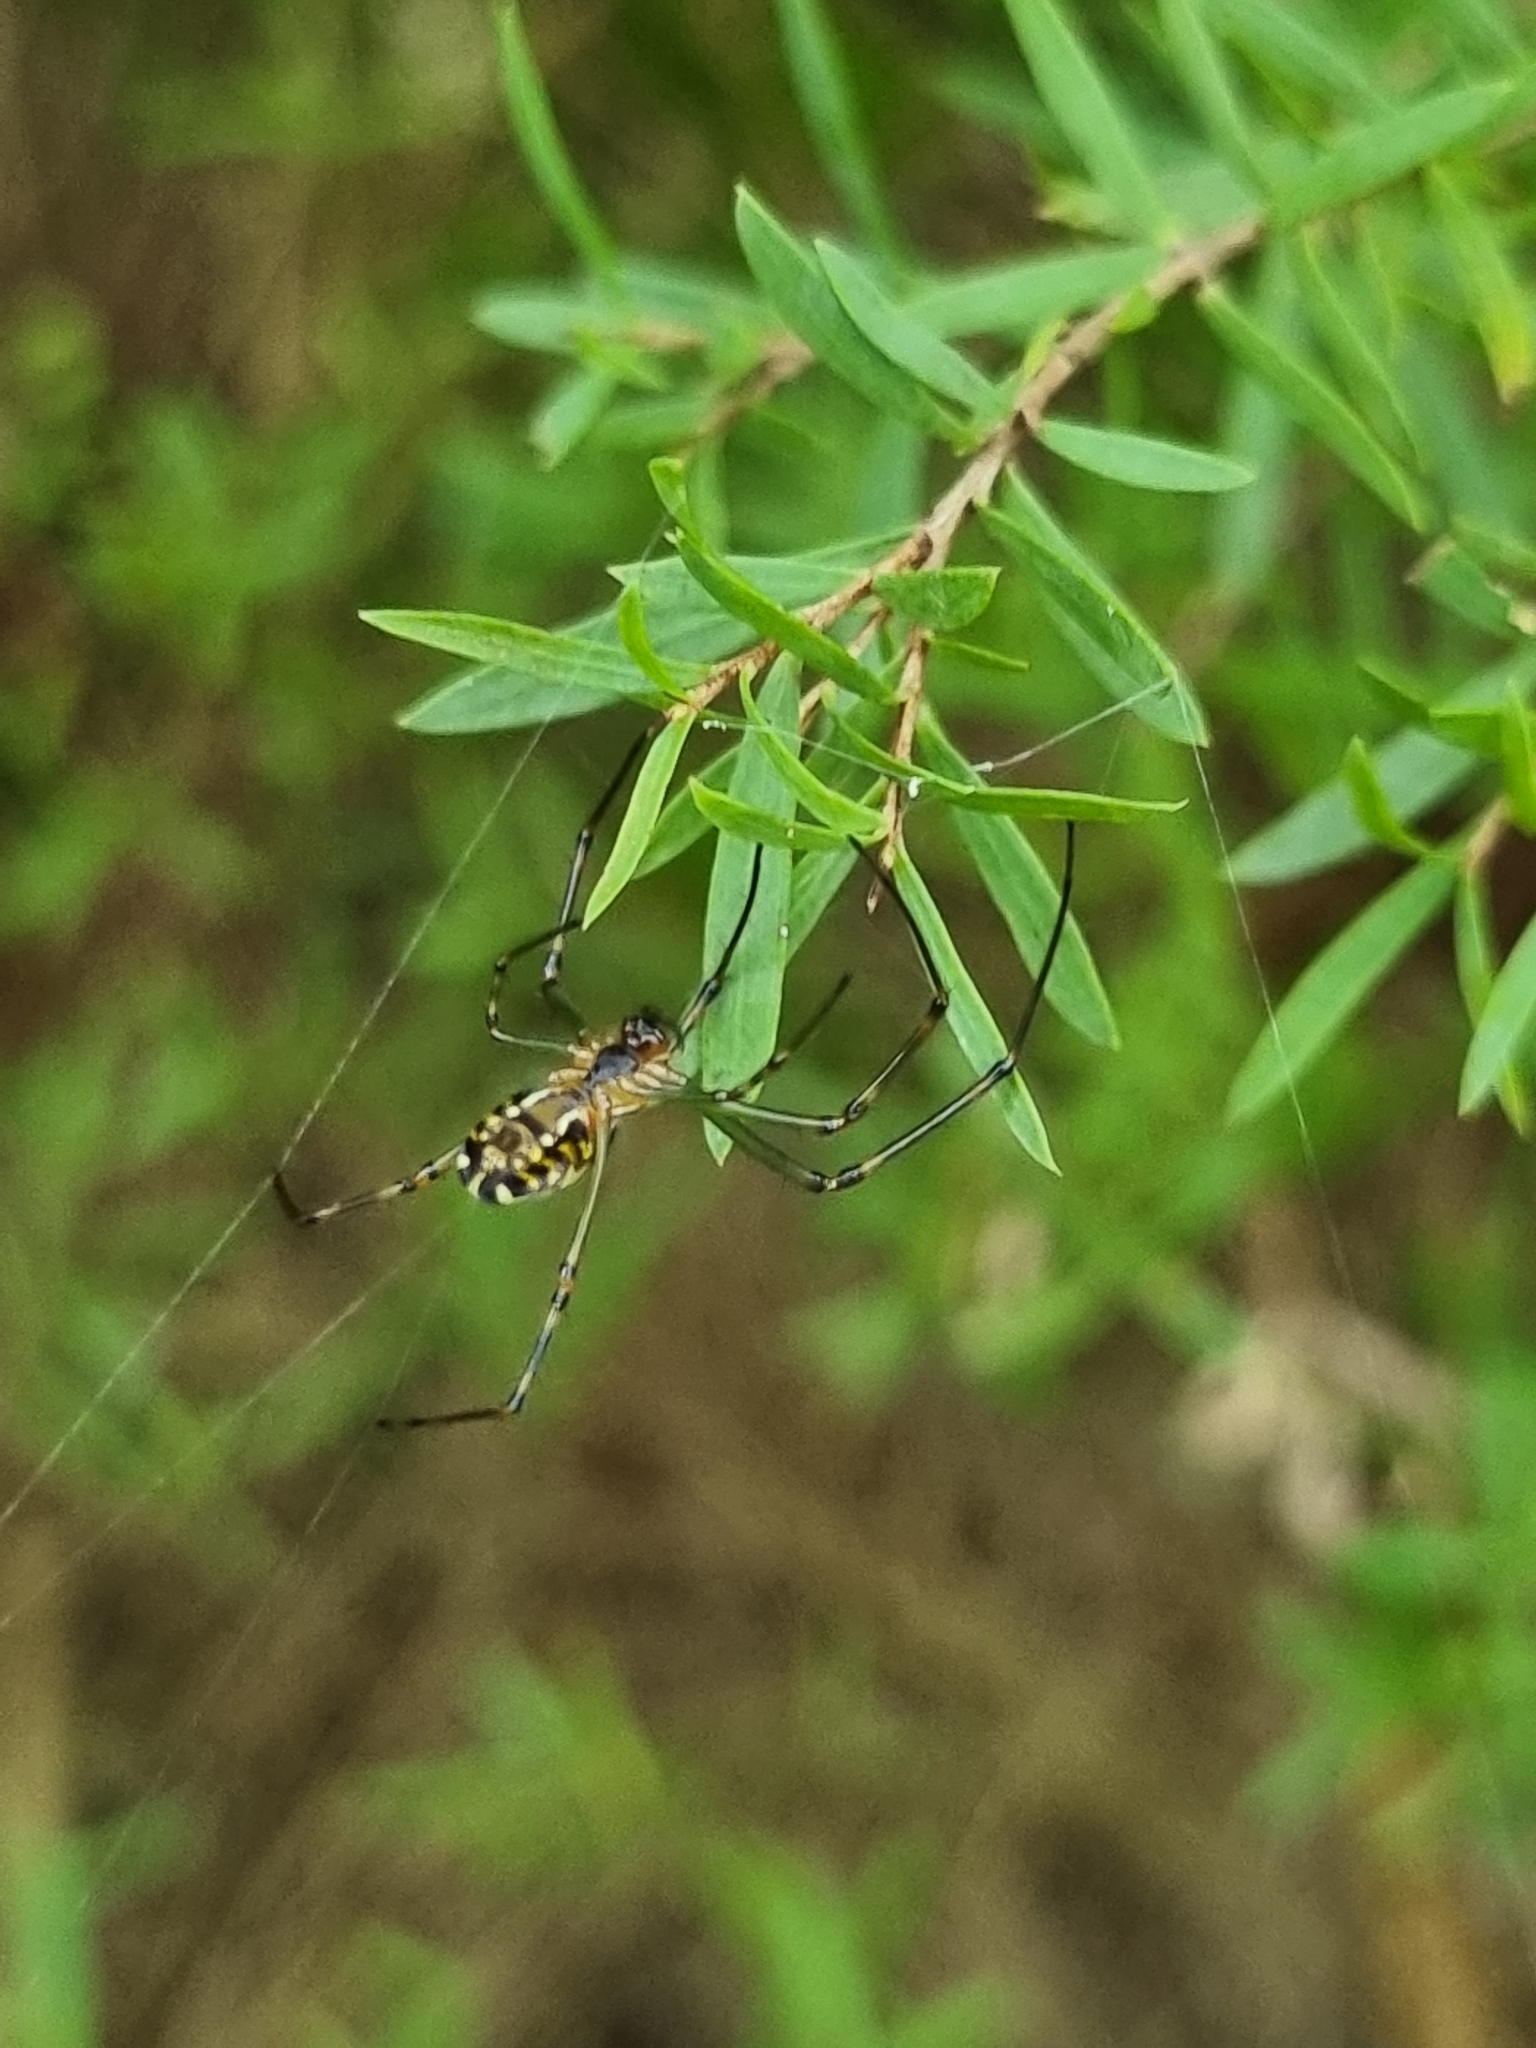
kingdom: Animalia
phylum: Arthropoda
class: Arachnida
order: Araneae
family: Tetragnathidae
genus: Leucauge
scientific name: Leucauge dromedaria
